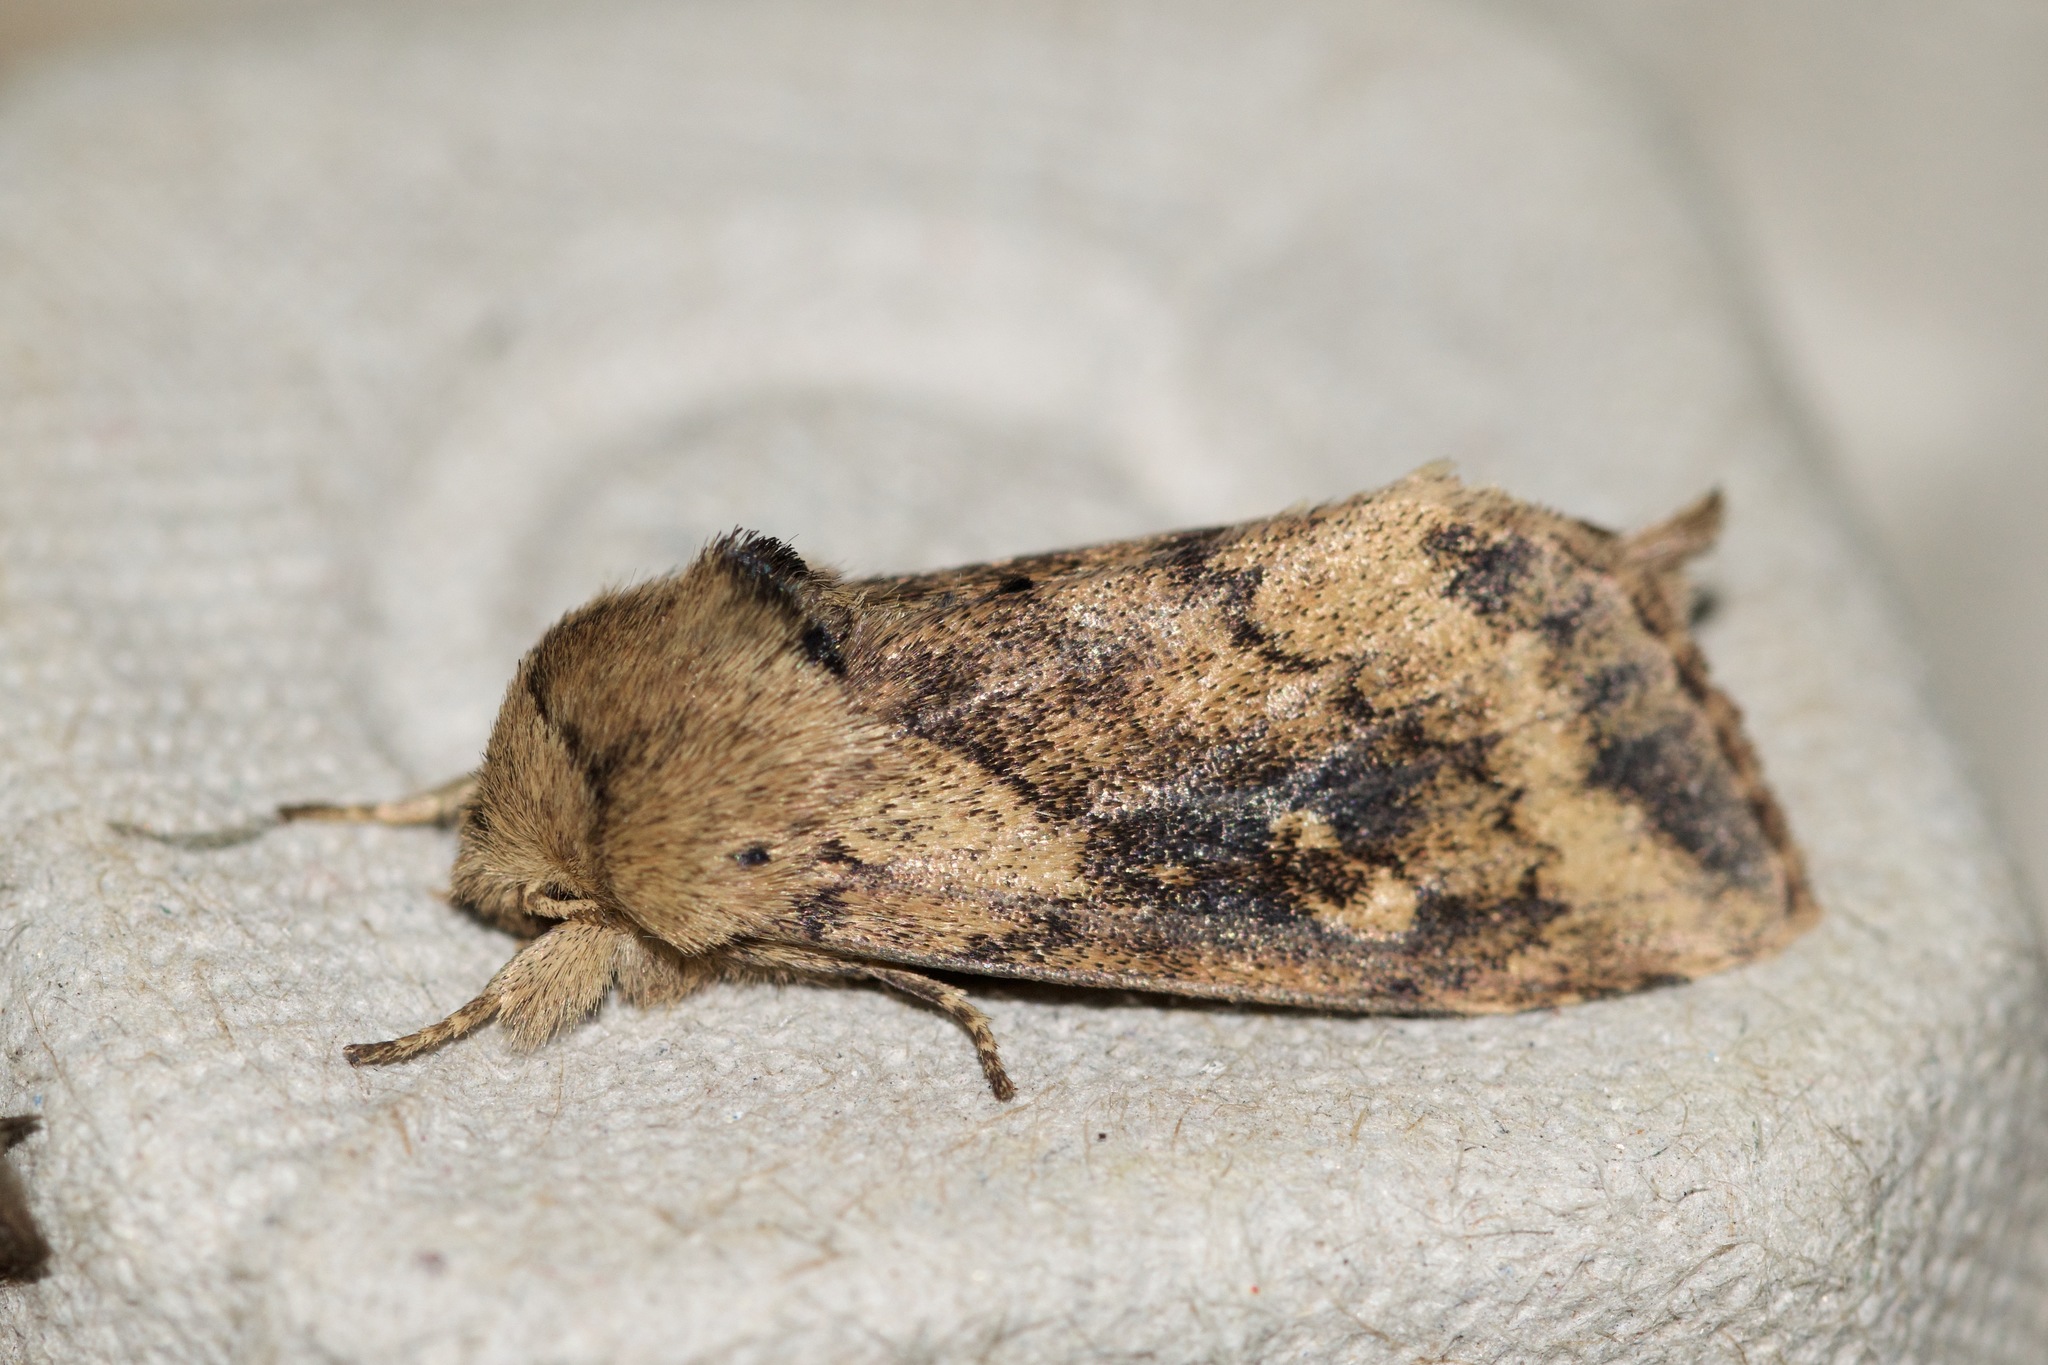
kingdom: Animalia
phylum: Arthropoda
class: Insecta
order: Lepidoptera
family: Noctuidae
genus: Bellura
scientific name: Bellura vulnifica
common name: Black-tailed diver moth
